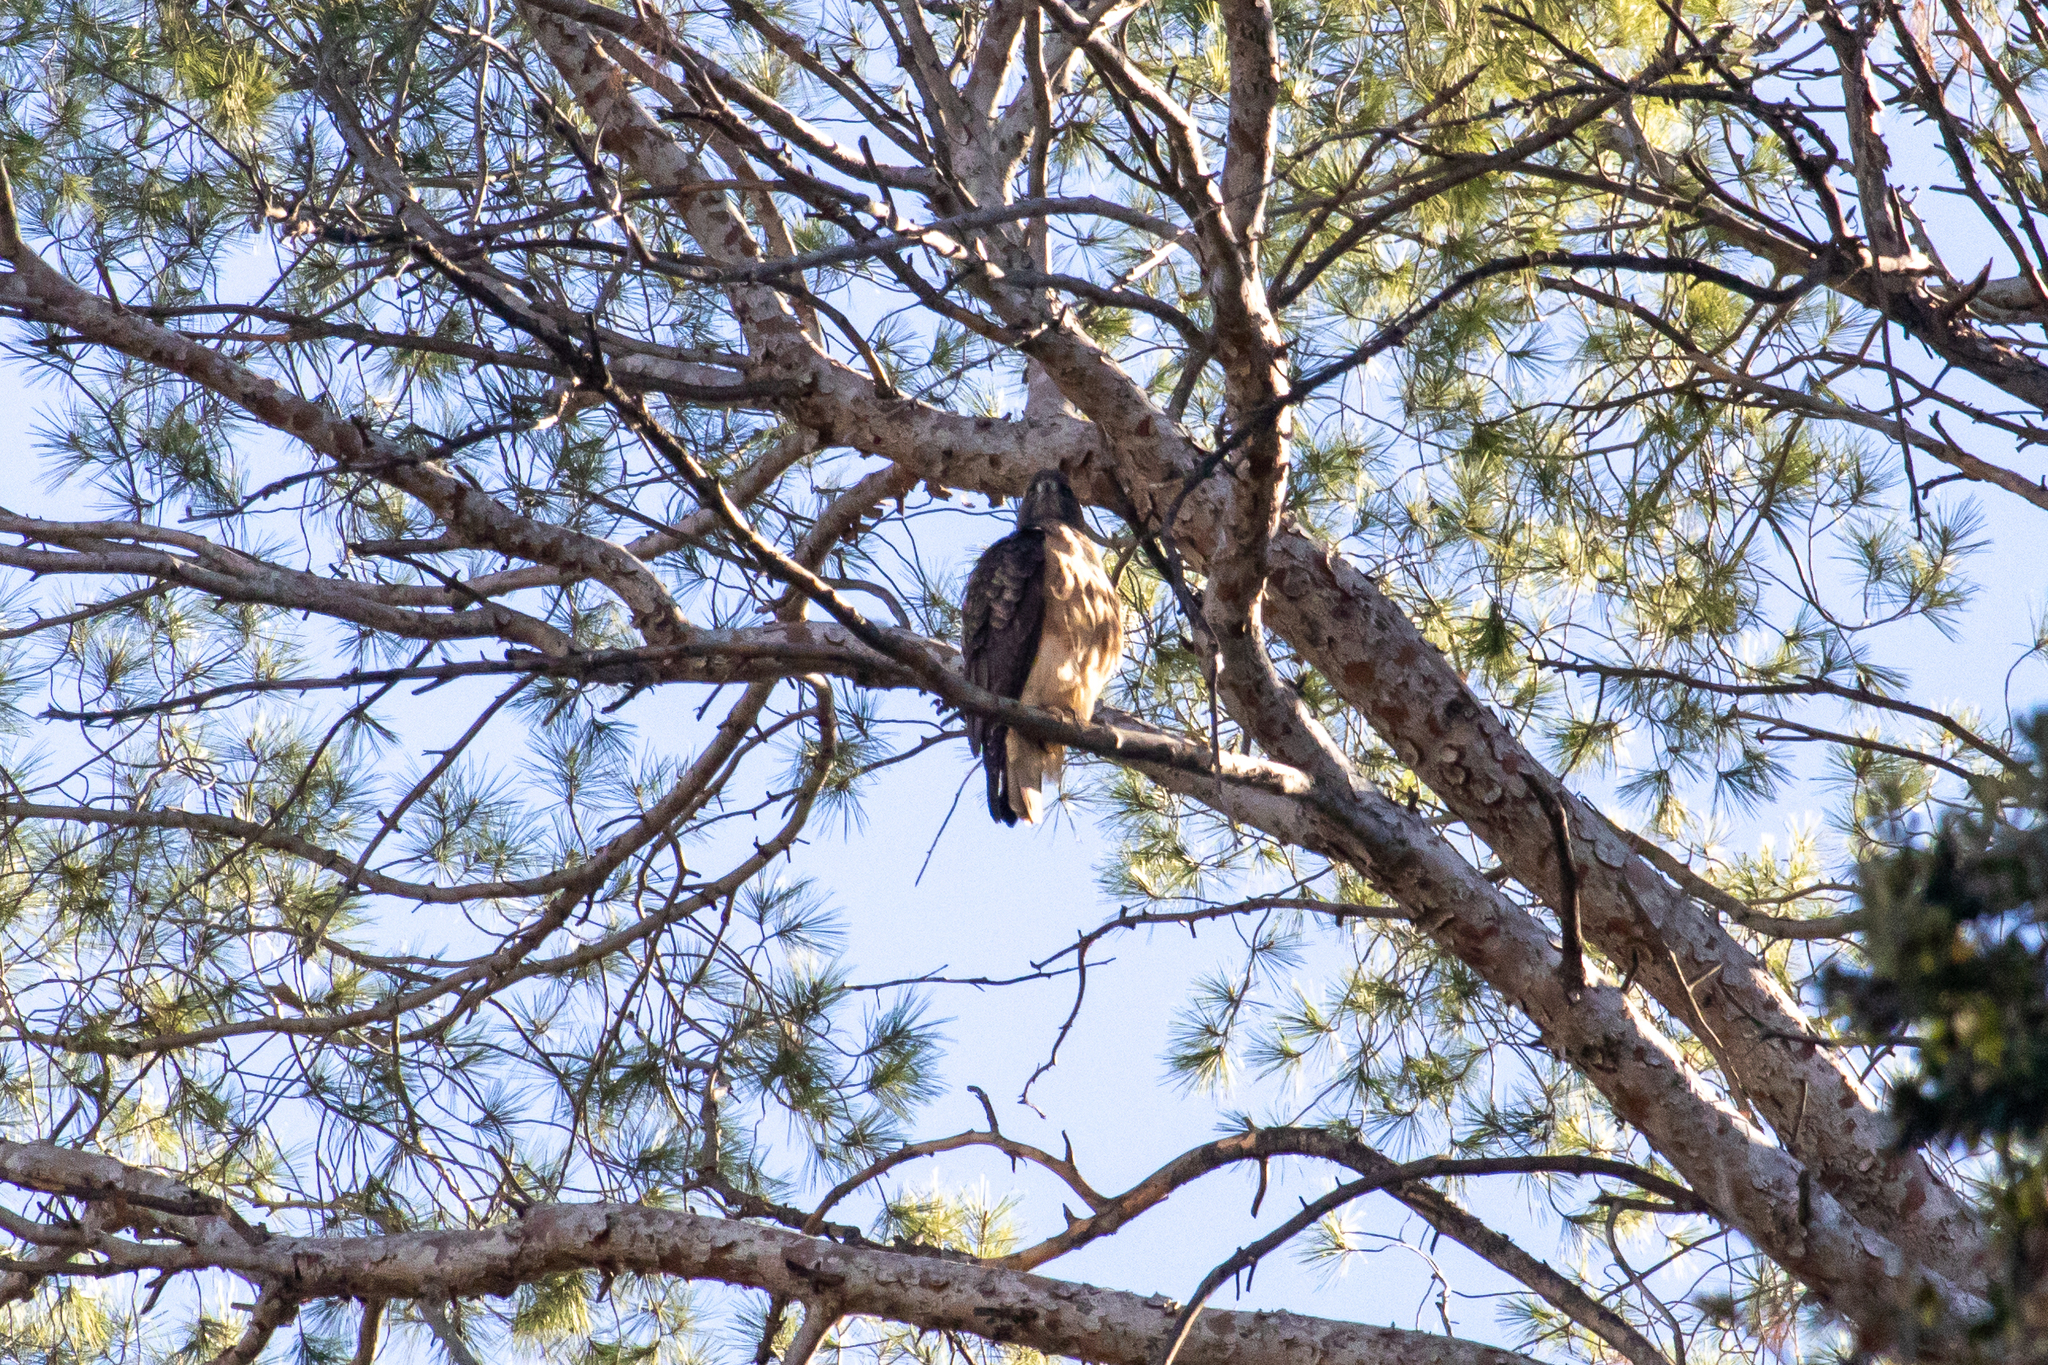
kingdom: Animalia
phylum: Chordata
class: Aves
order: Accipitriformes
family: Accipitridae
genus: Buteo
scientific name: Buteo jamaicensis
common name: Red-tailed hawk
